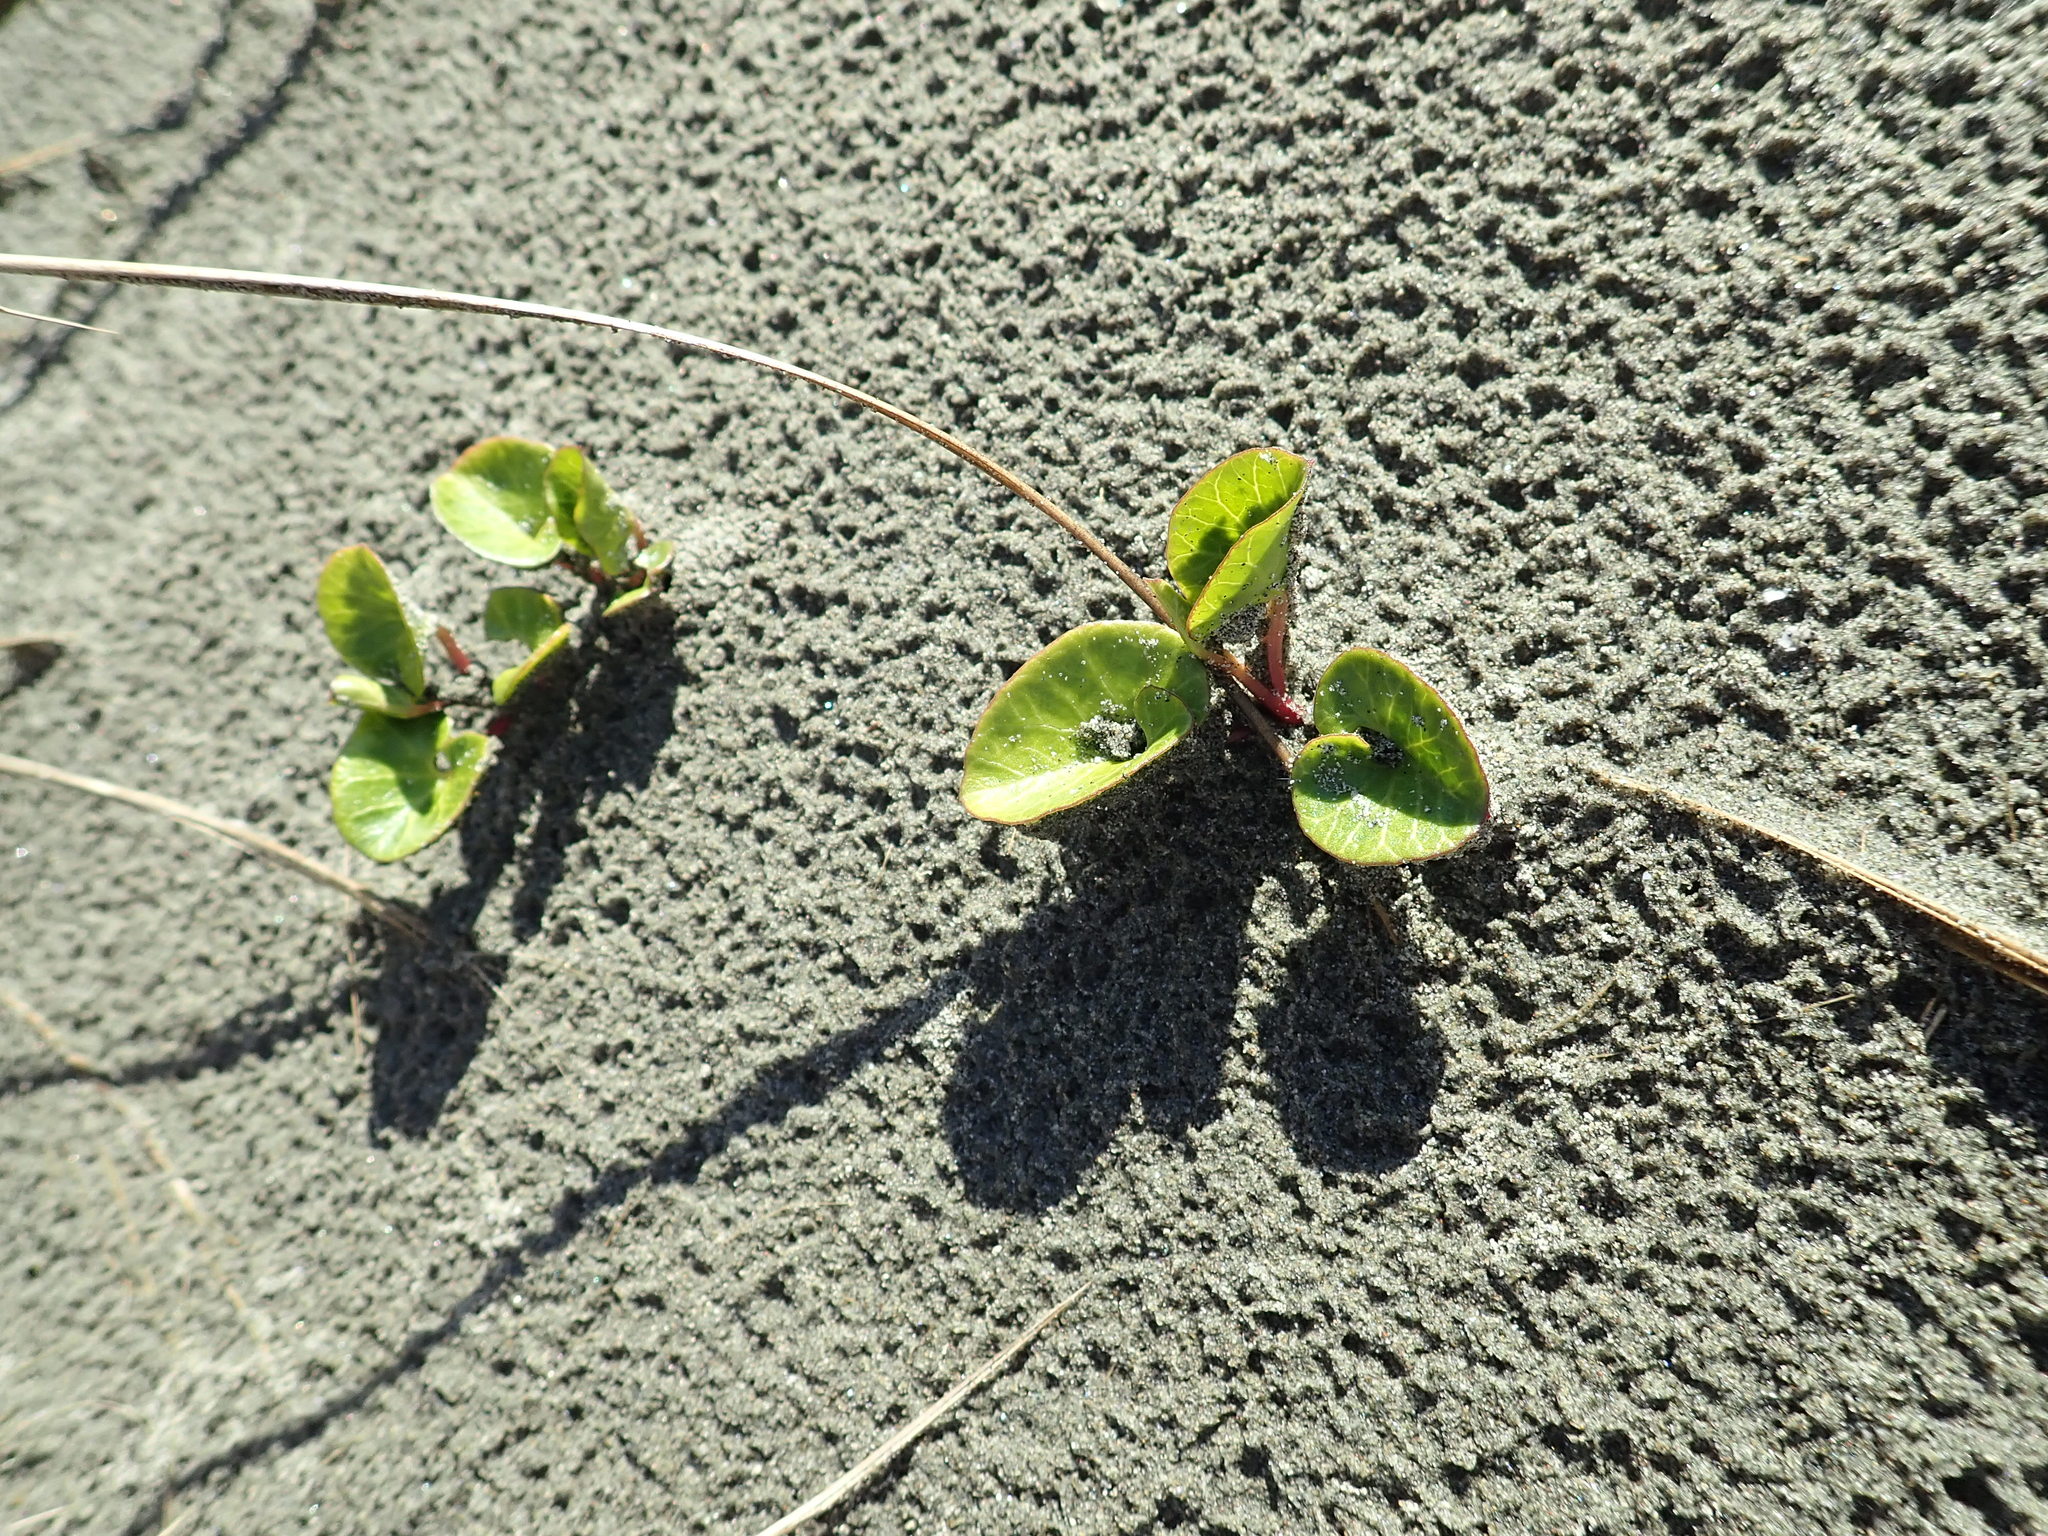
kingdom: Plantae
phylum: Tracheophyta
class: Magnoliopsida
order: Solanales
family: Convolvulaceae
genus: Calystegia
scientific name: Calystegia soldanella
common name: Sea bindweed
